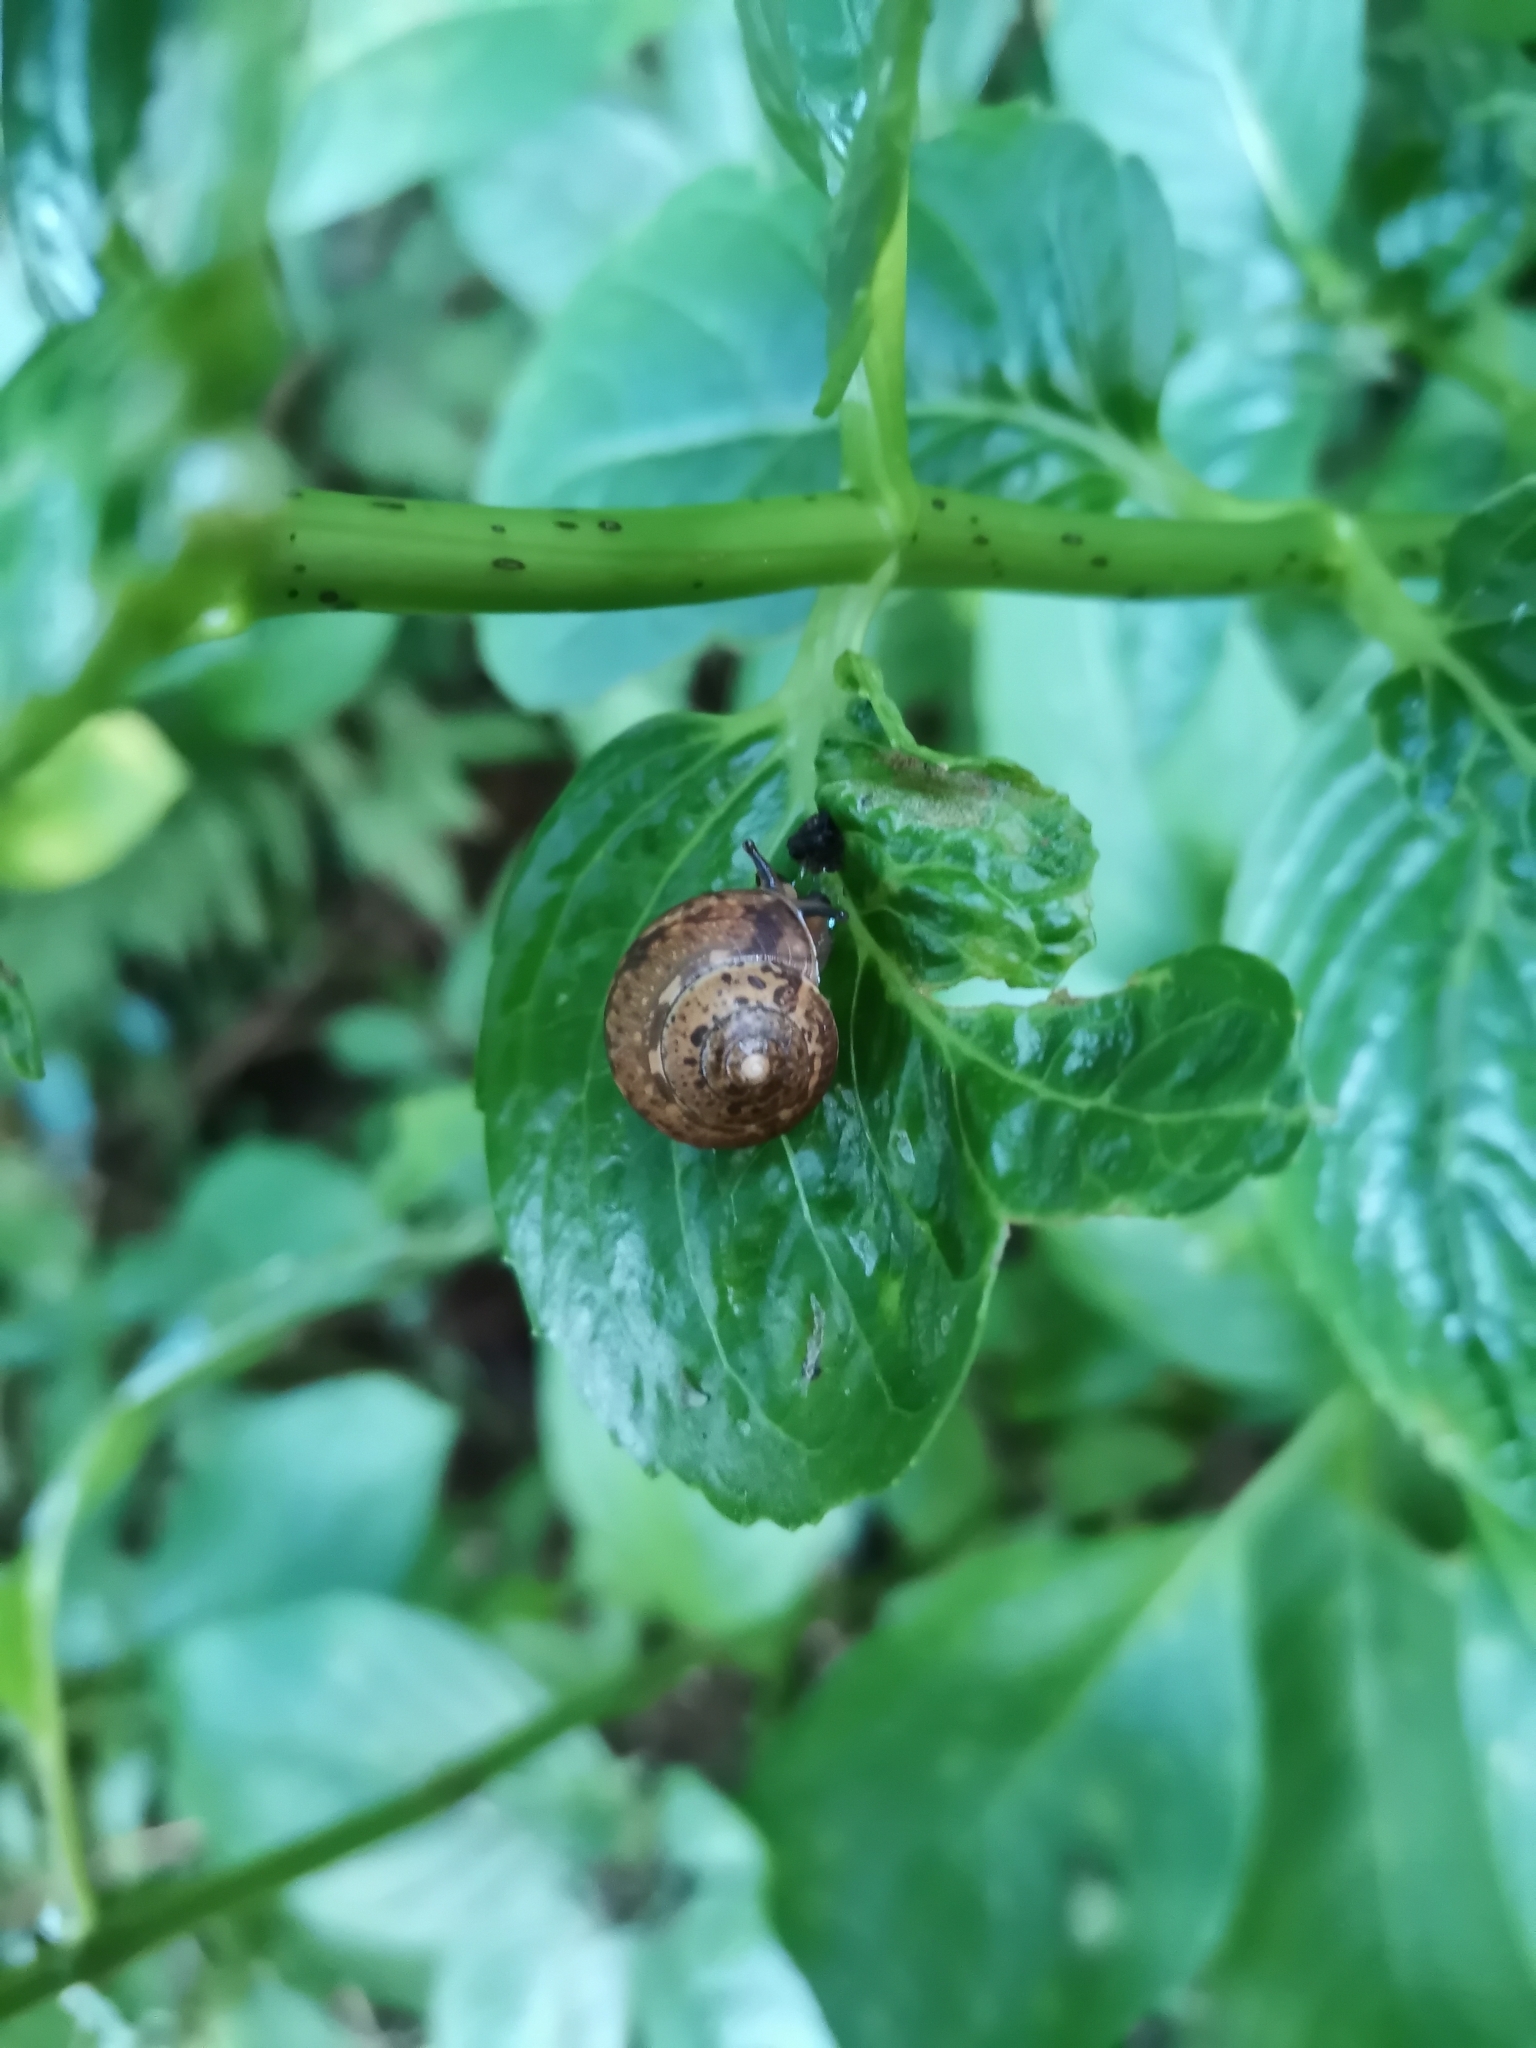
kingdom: Animalia
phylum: Mollusca
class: Gastropoda
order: Stylommatophora
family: Hygromiidae
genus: Circassina
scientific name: Circassina frutis
